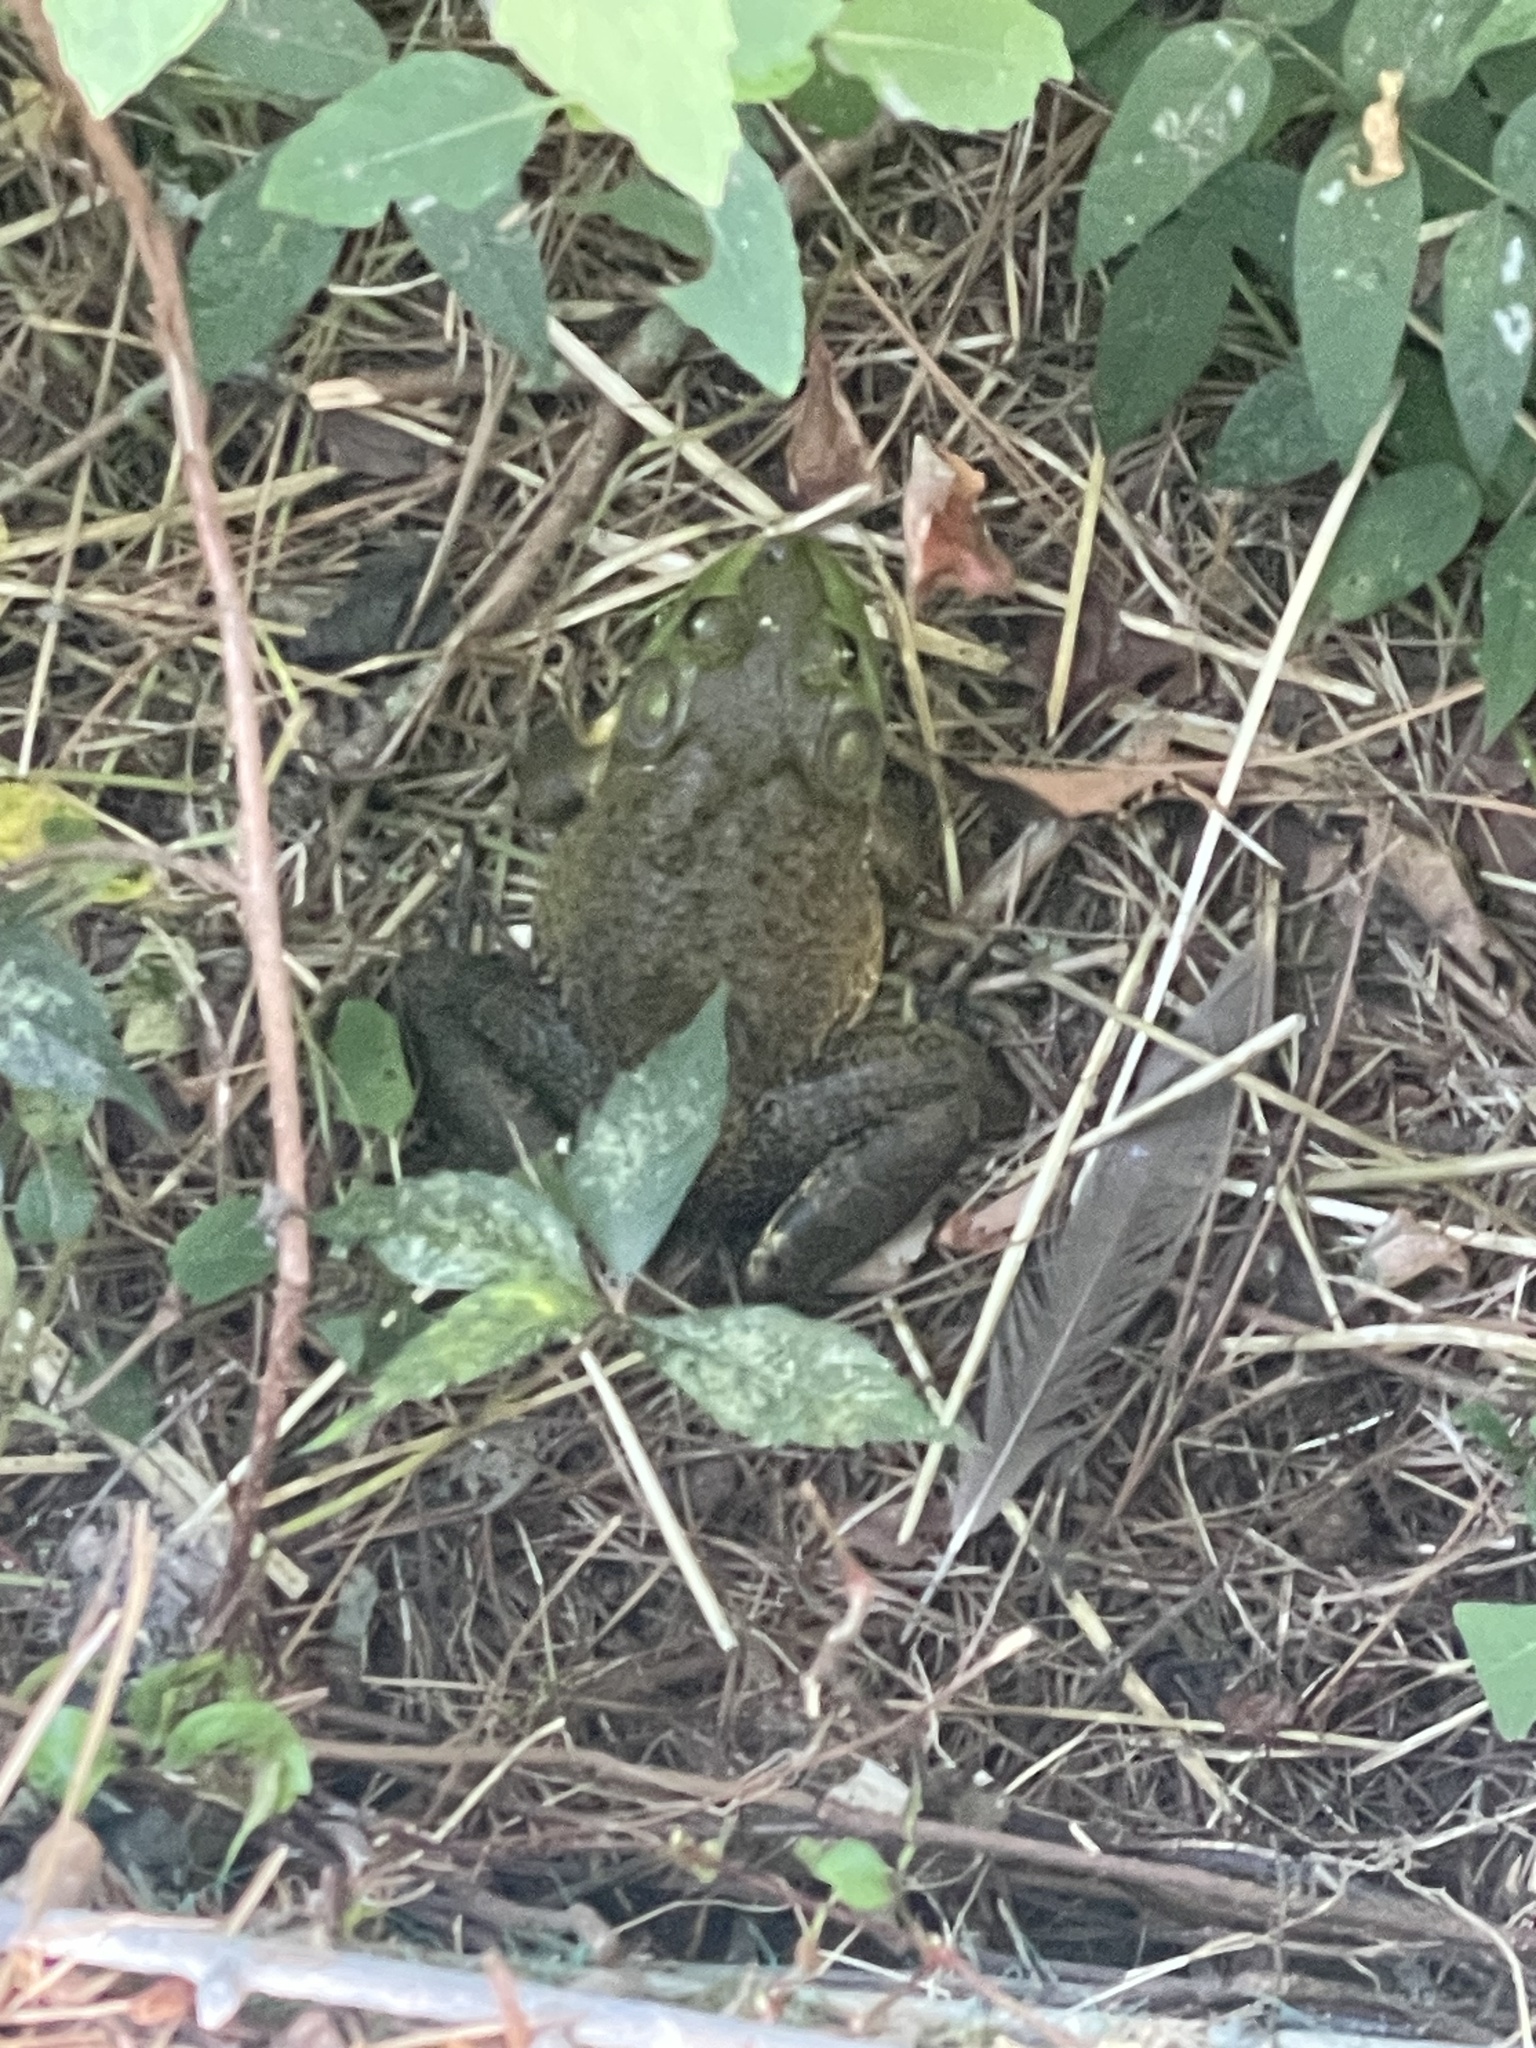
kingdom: Animalia
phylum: Chordata
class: Amphibia
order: Anura
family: Ranidae
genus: Lithobates
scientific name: Lithobates catesbeianus
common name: American bullfrog
